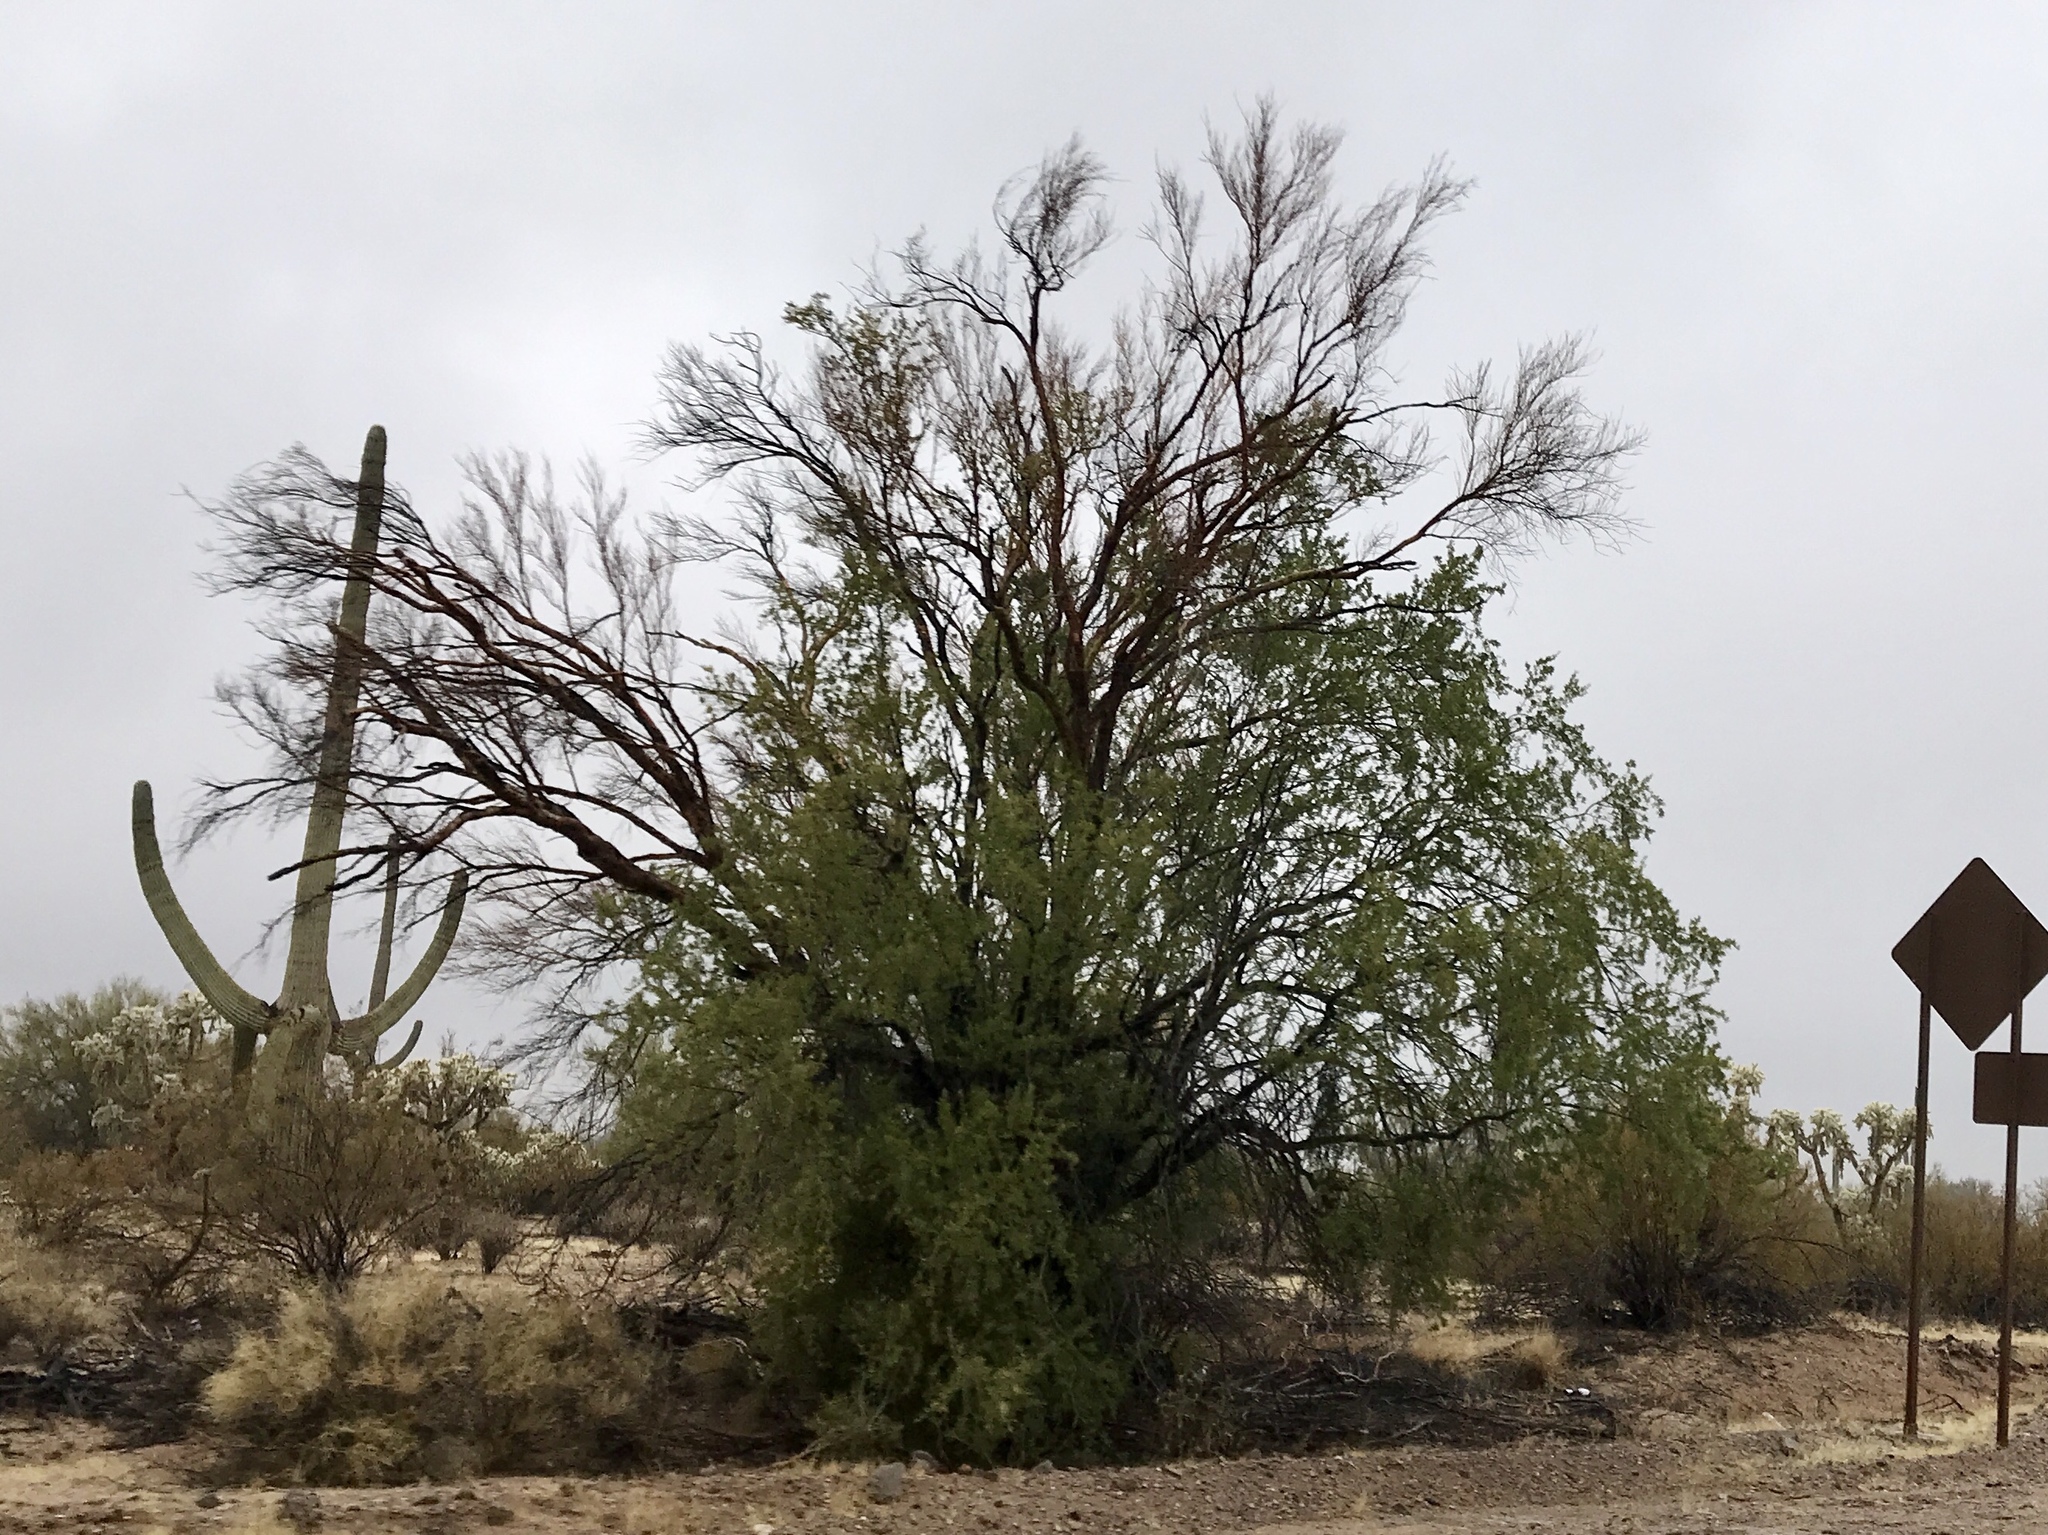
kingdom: Plantae
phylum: Tracheophyta
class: Magnoliopsida
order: Fabales
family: Fabaceae
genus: Olneya
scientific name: Olneya tesota
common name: Desert ironwood
